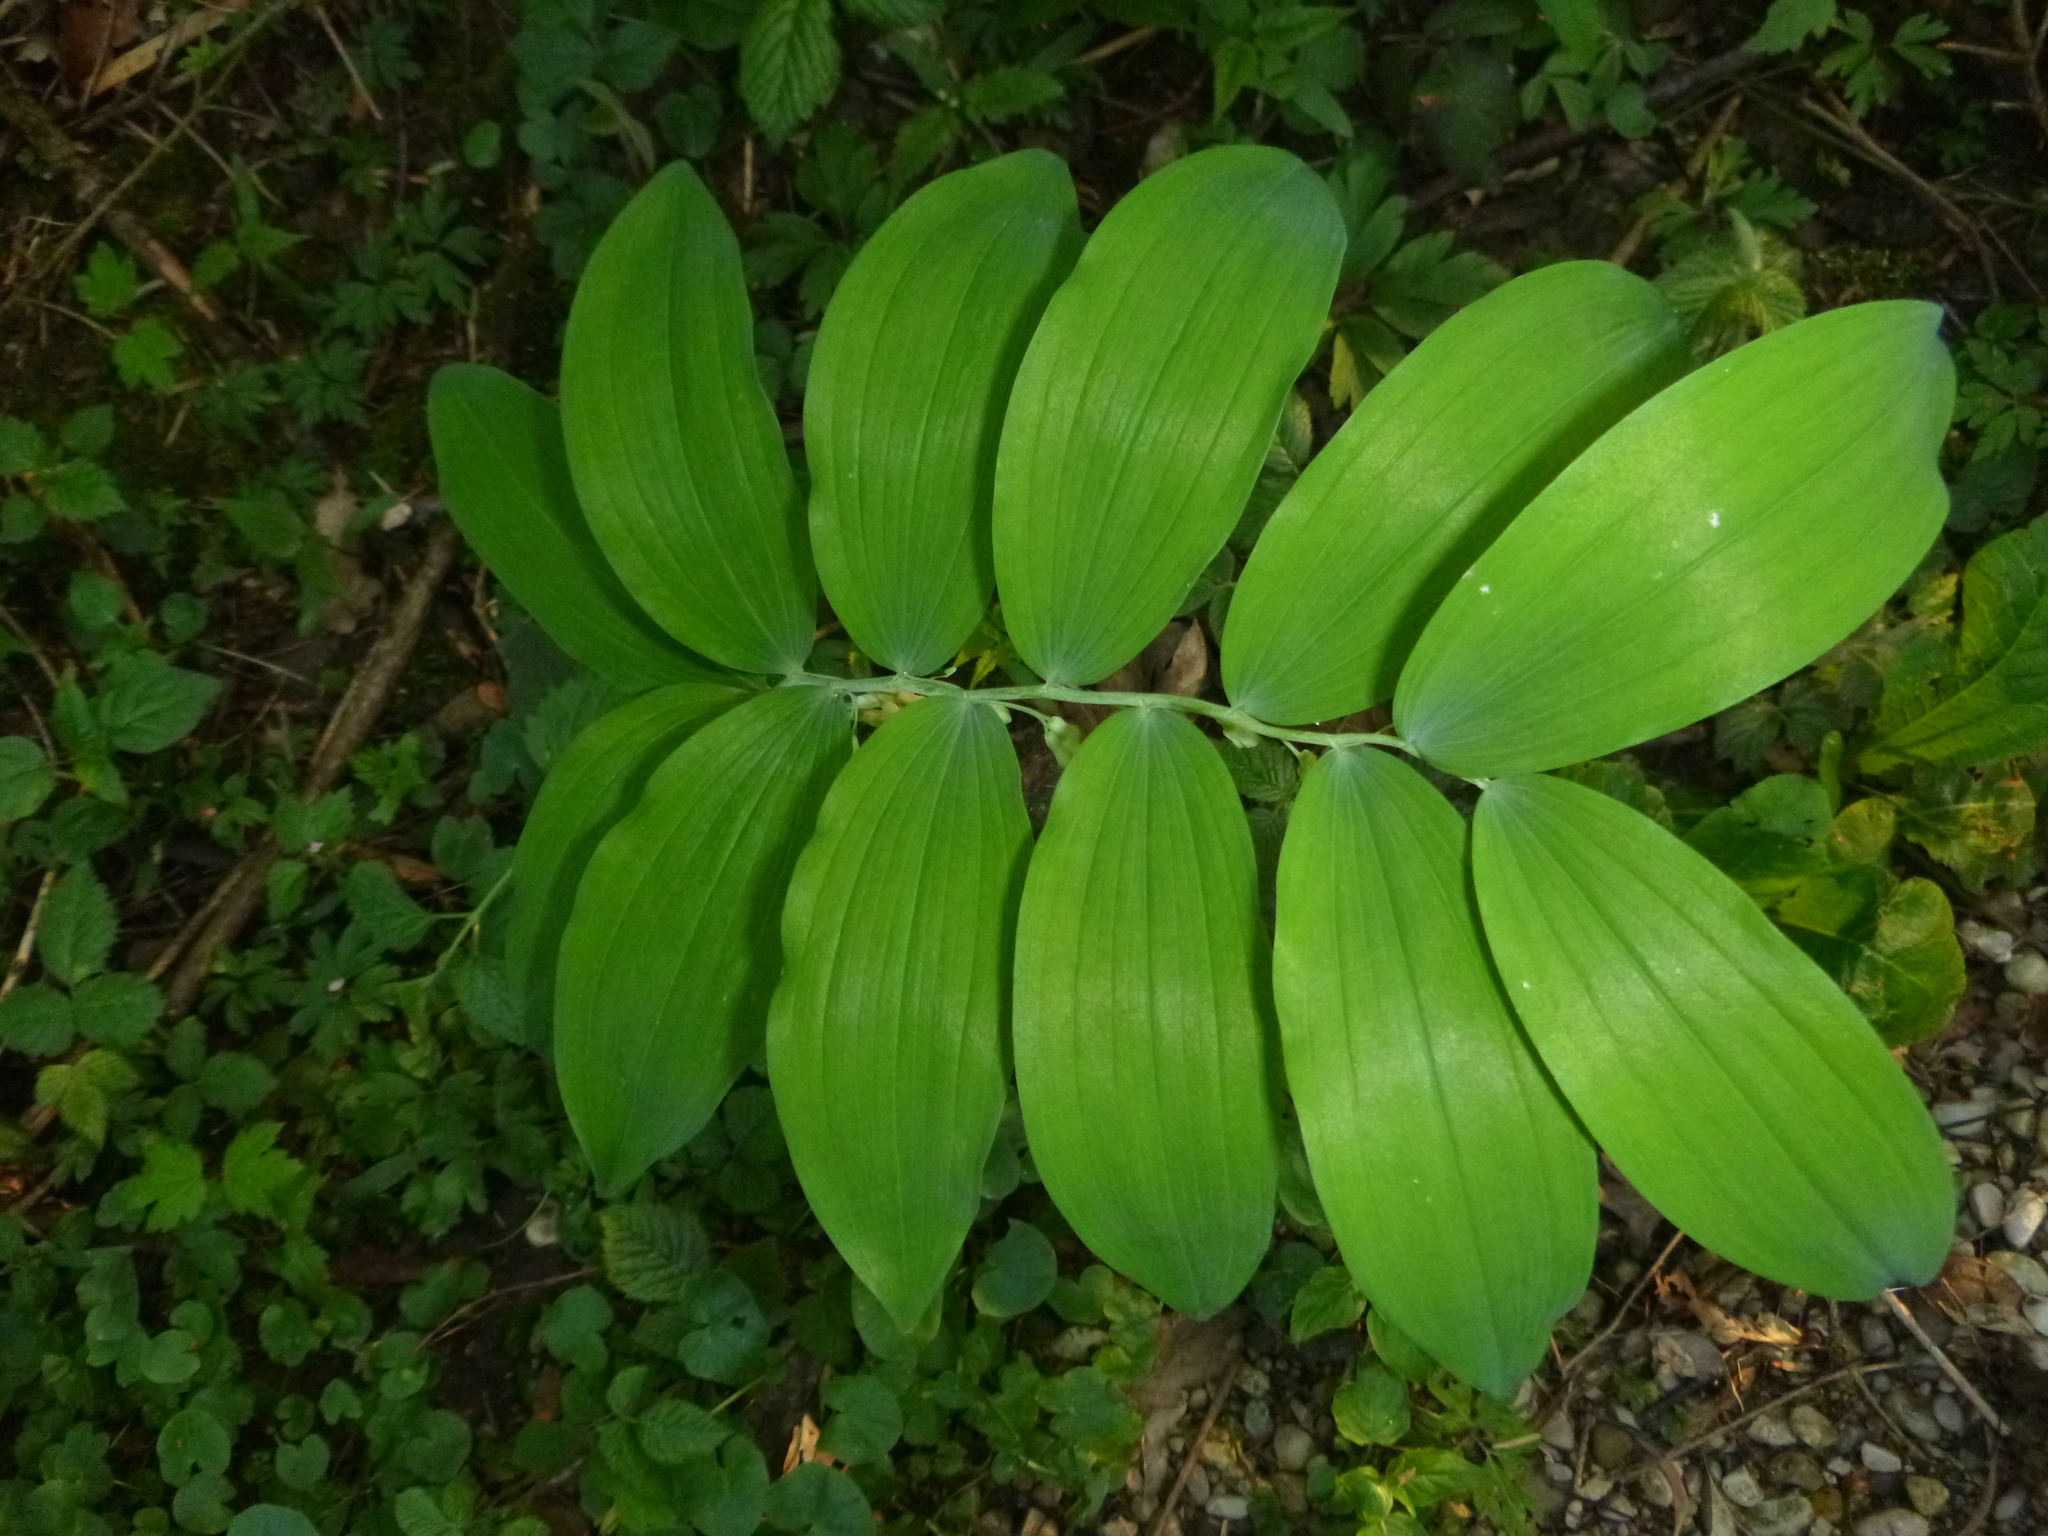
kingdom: Plantae
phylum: Tracheophyta
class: Liliopsida
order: Asparagales
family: Asparagaceae
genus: Polygonatum
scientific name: Polygonatum multiflorum
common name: Solomon's-seal
